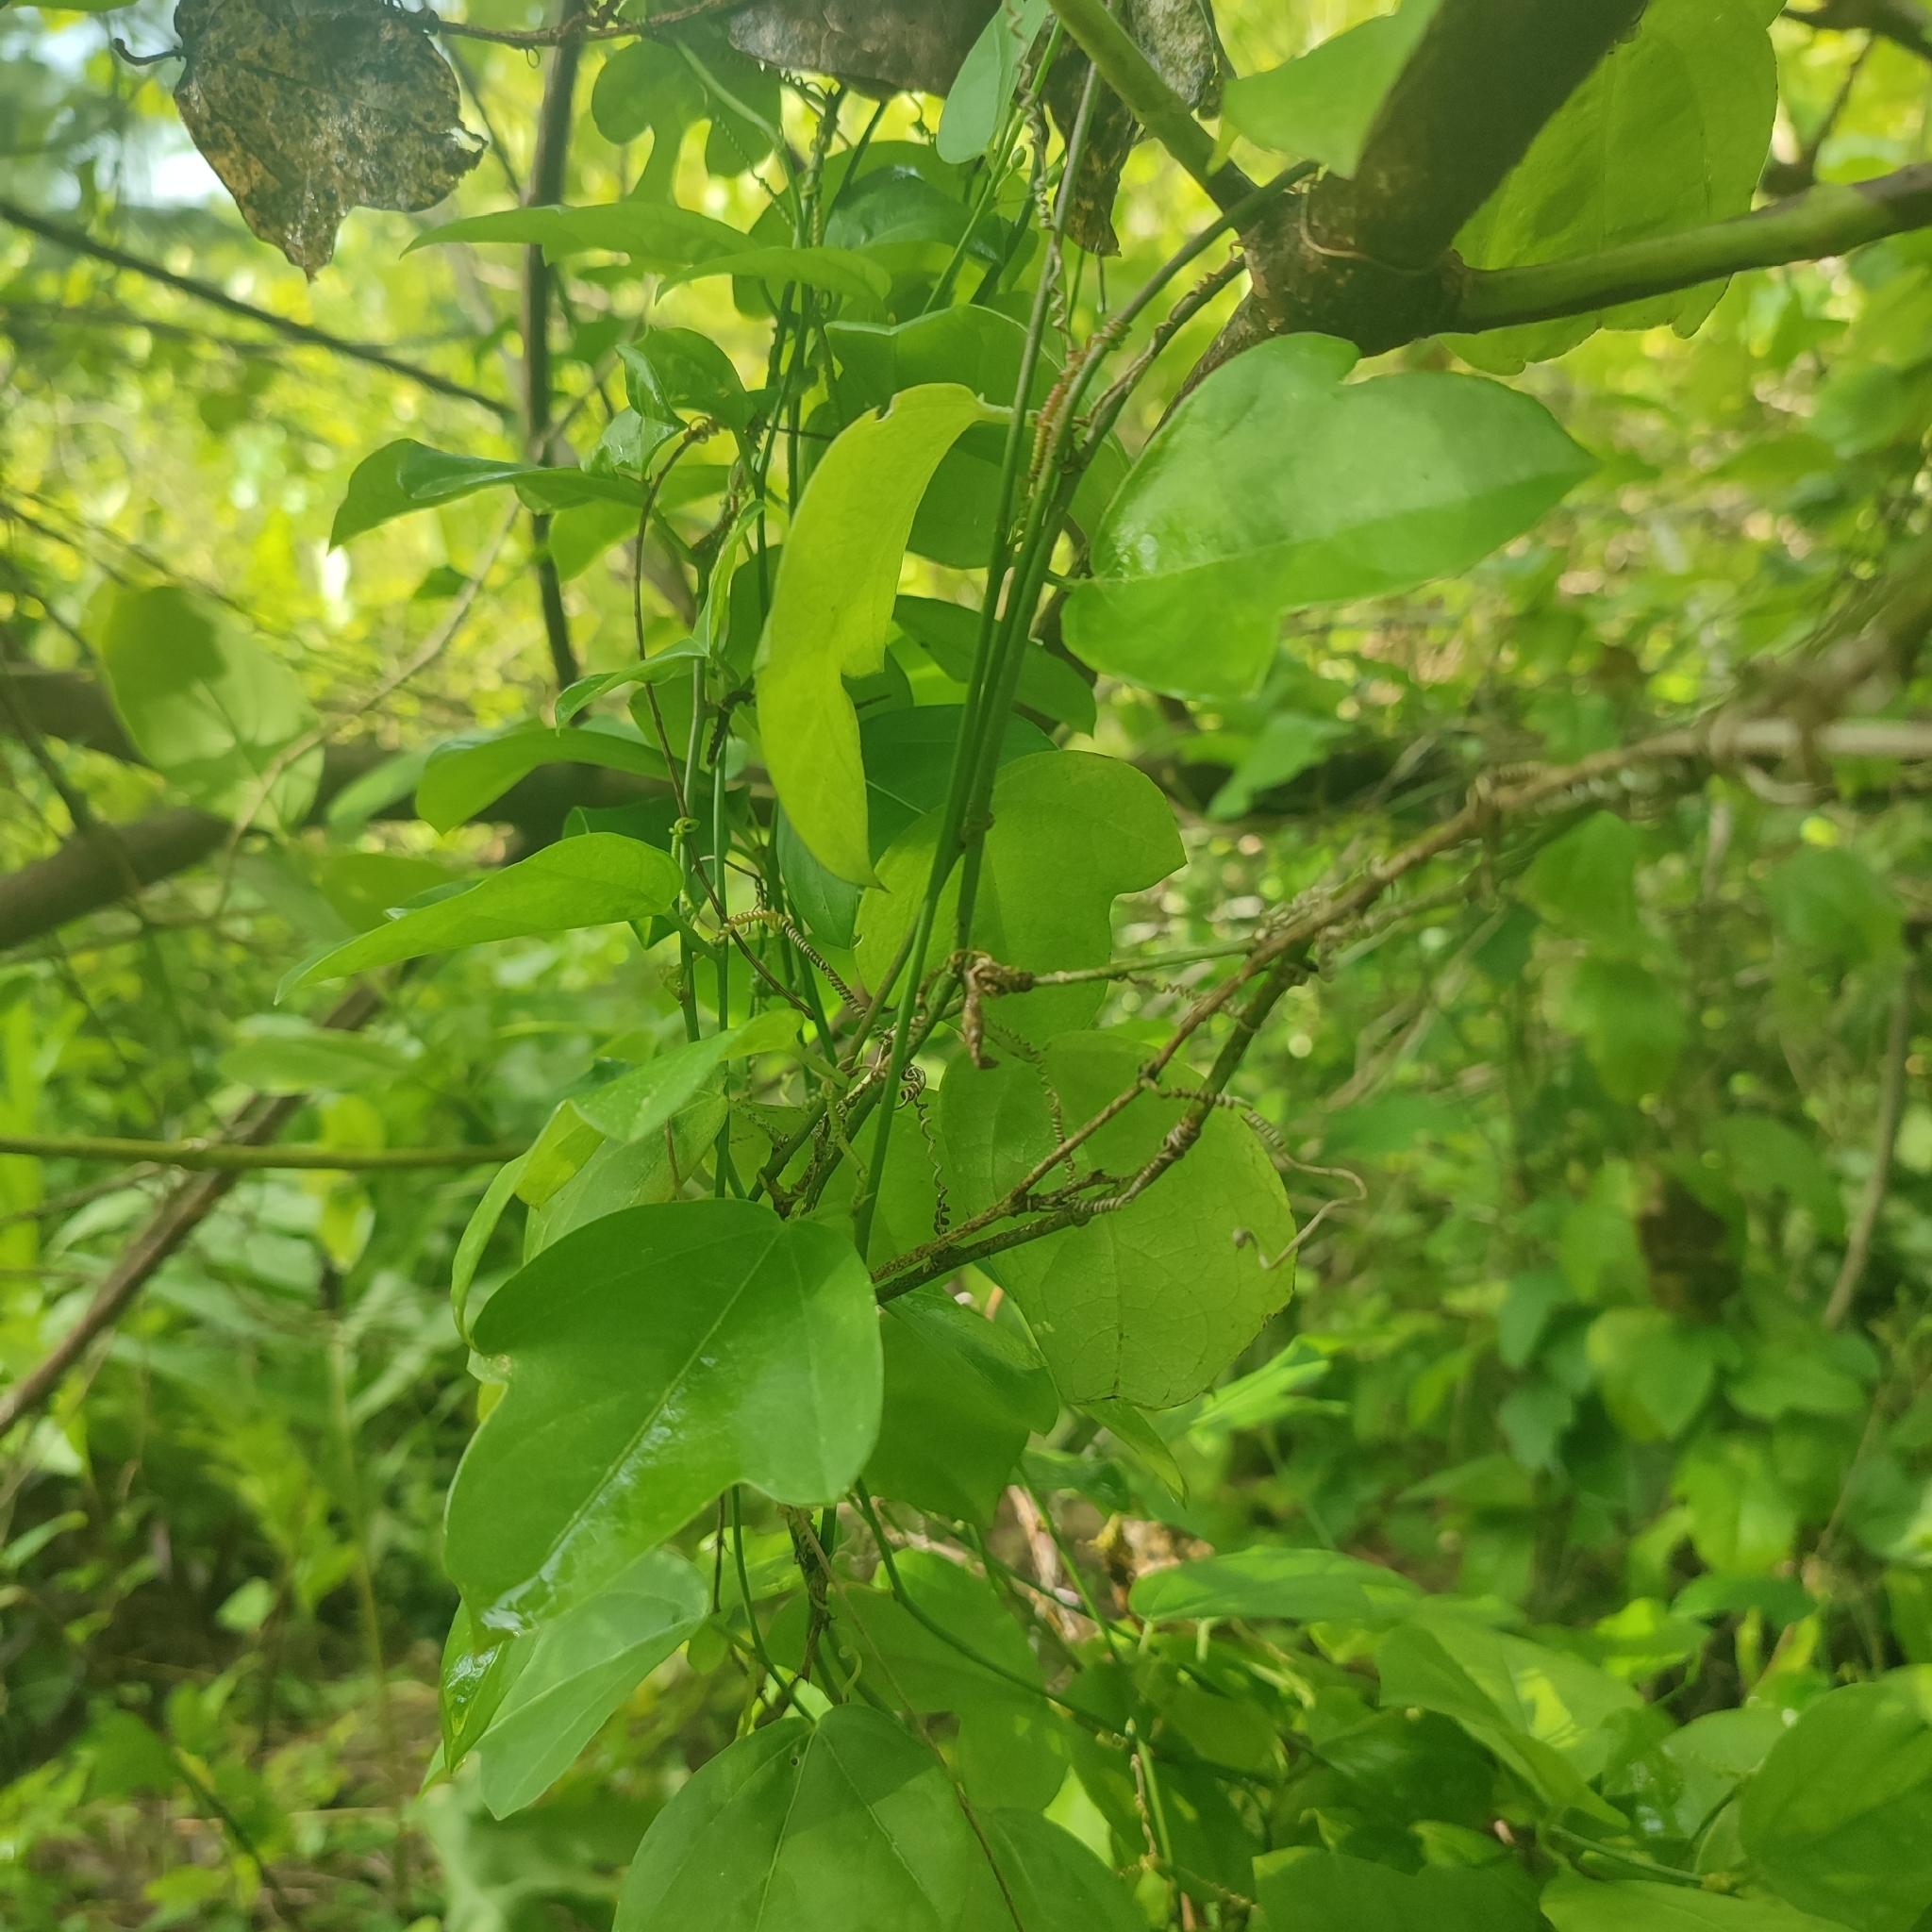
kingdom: Plantae
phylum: Tracheophyta
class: Magnoliopsida
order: Malpighiales
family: Passifloraceae
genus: Passiflora
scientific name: Passiflora pallida
